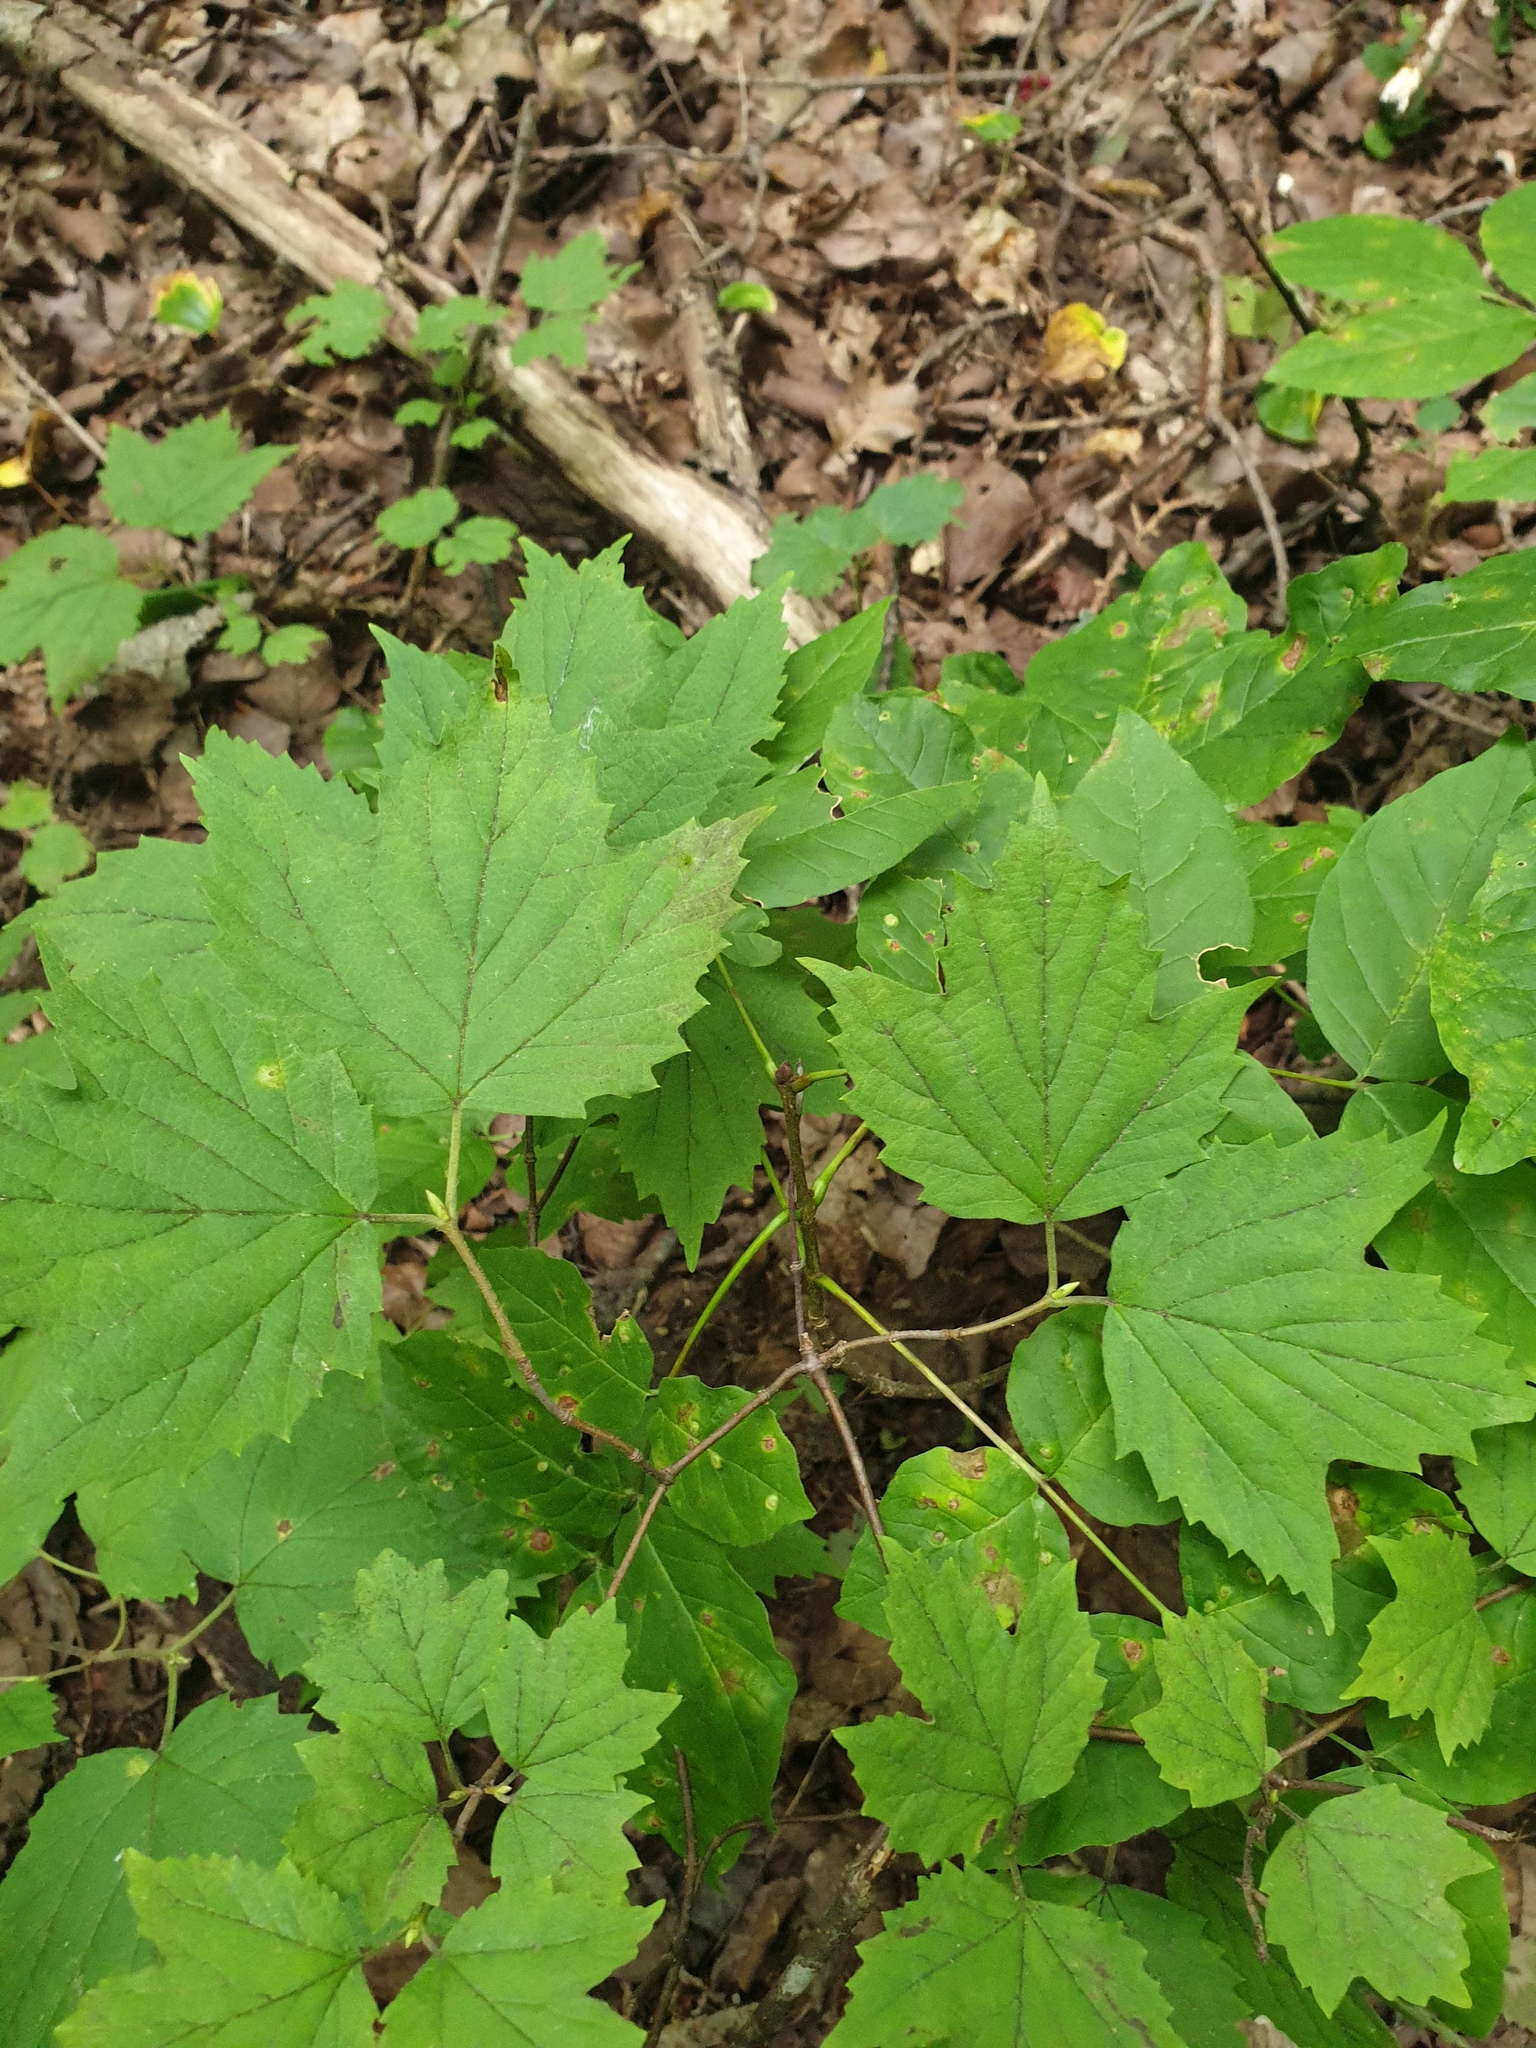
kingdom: Plantae
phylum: Tracheophyta
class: Magnoliopsida
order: Dipsacales
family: Viburnaceae
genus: Viburnum
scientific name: Viburnum acerifolium
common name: Dockmackie
